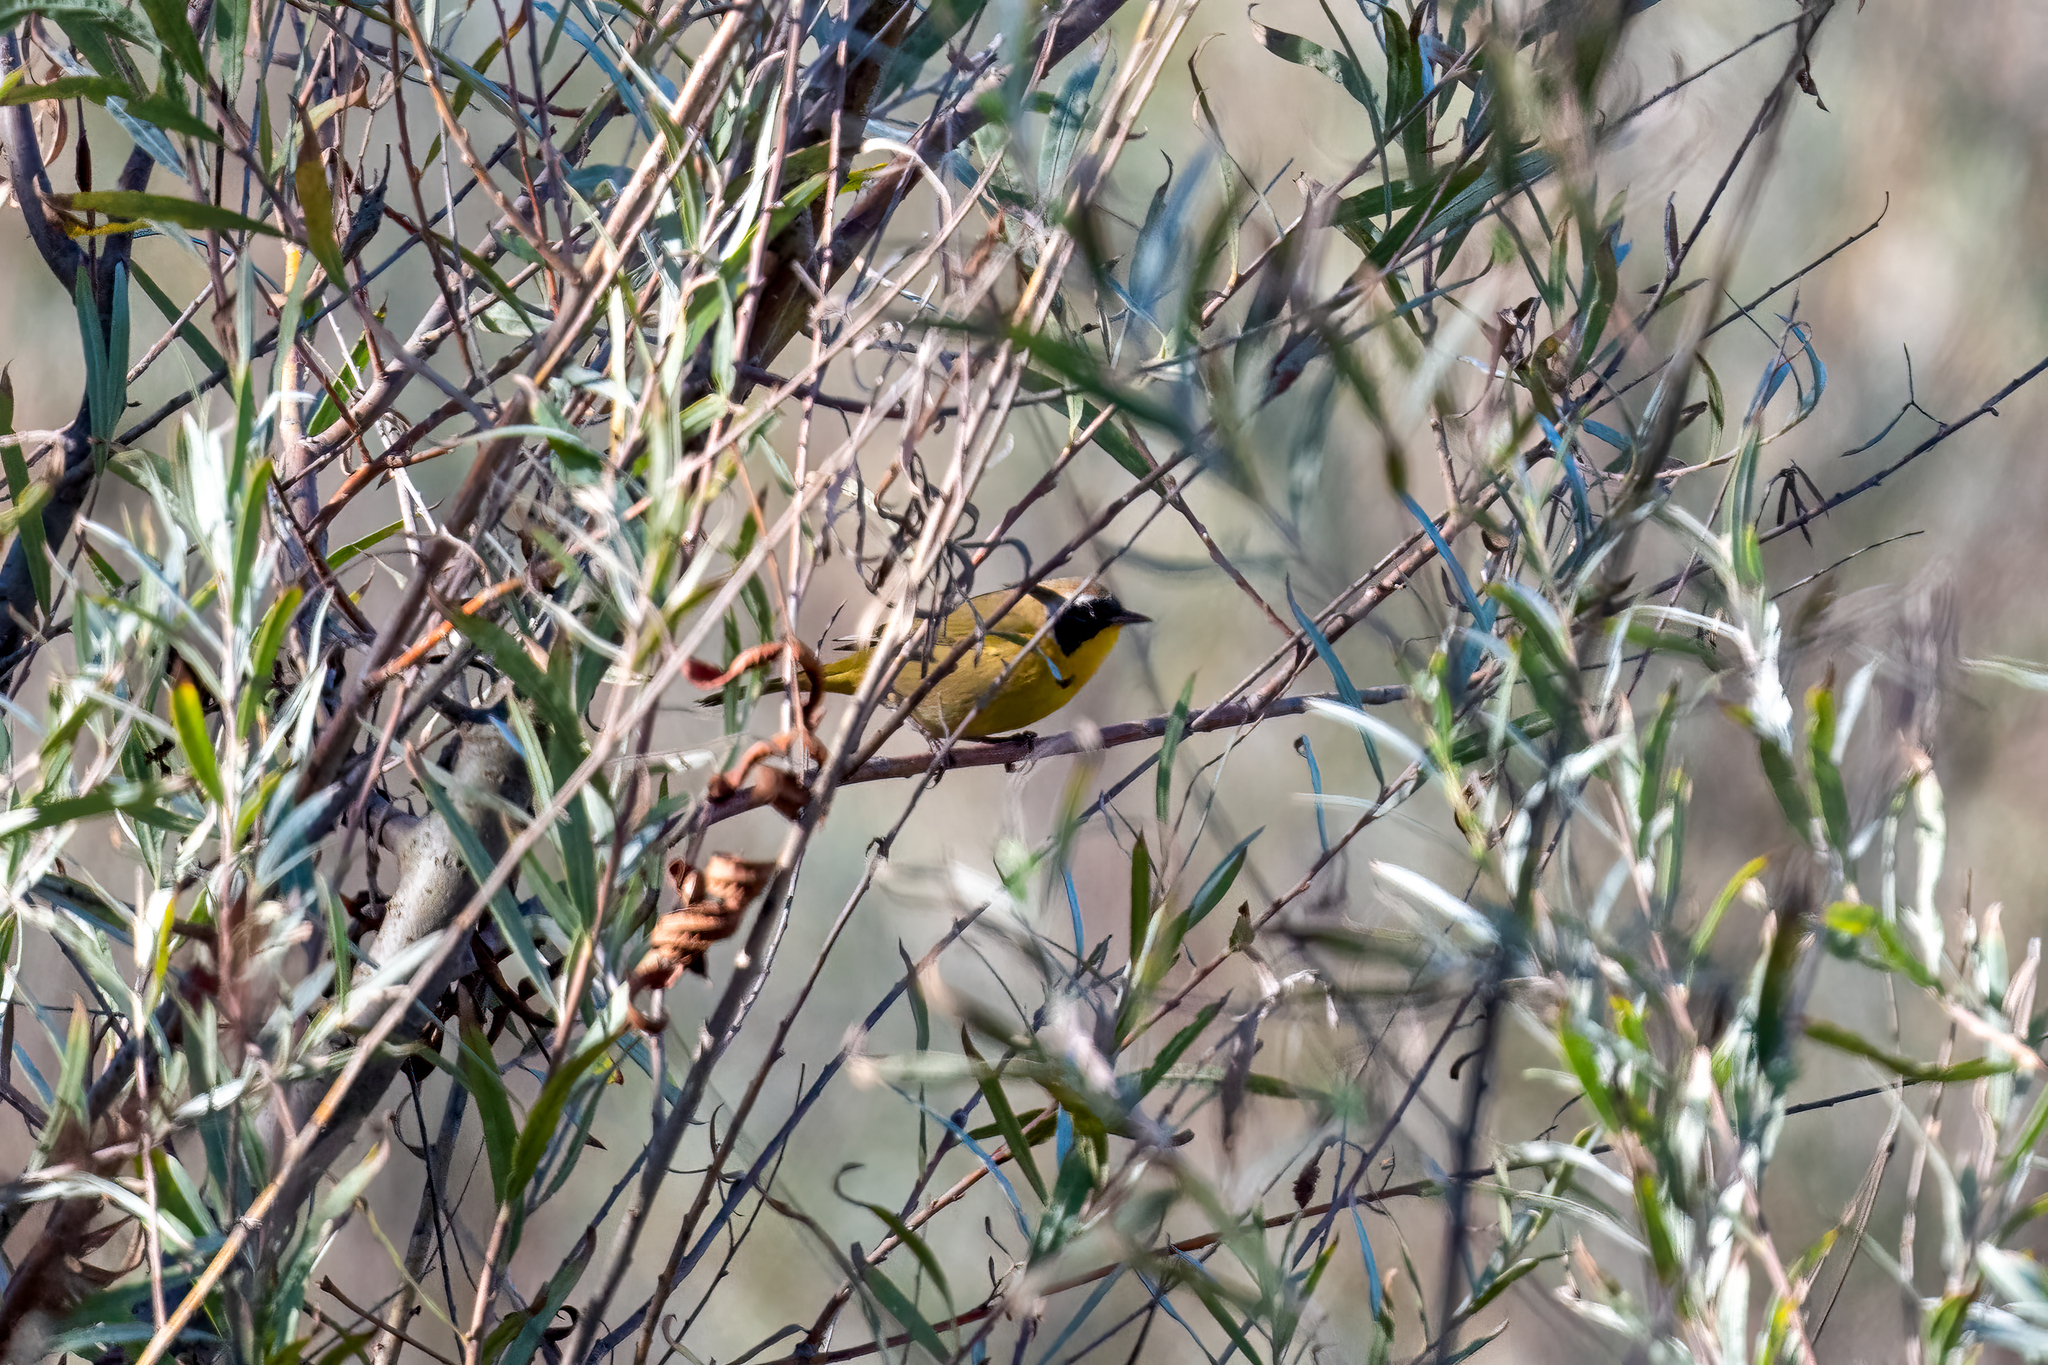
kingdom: Animalia
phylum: Chordata
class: Aves
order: Passeriformes
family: Parulidae
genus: Geothlypis
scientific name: Geothlypis trichas
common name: Common yellowthroat
